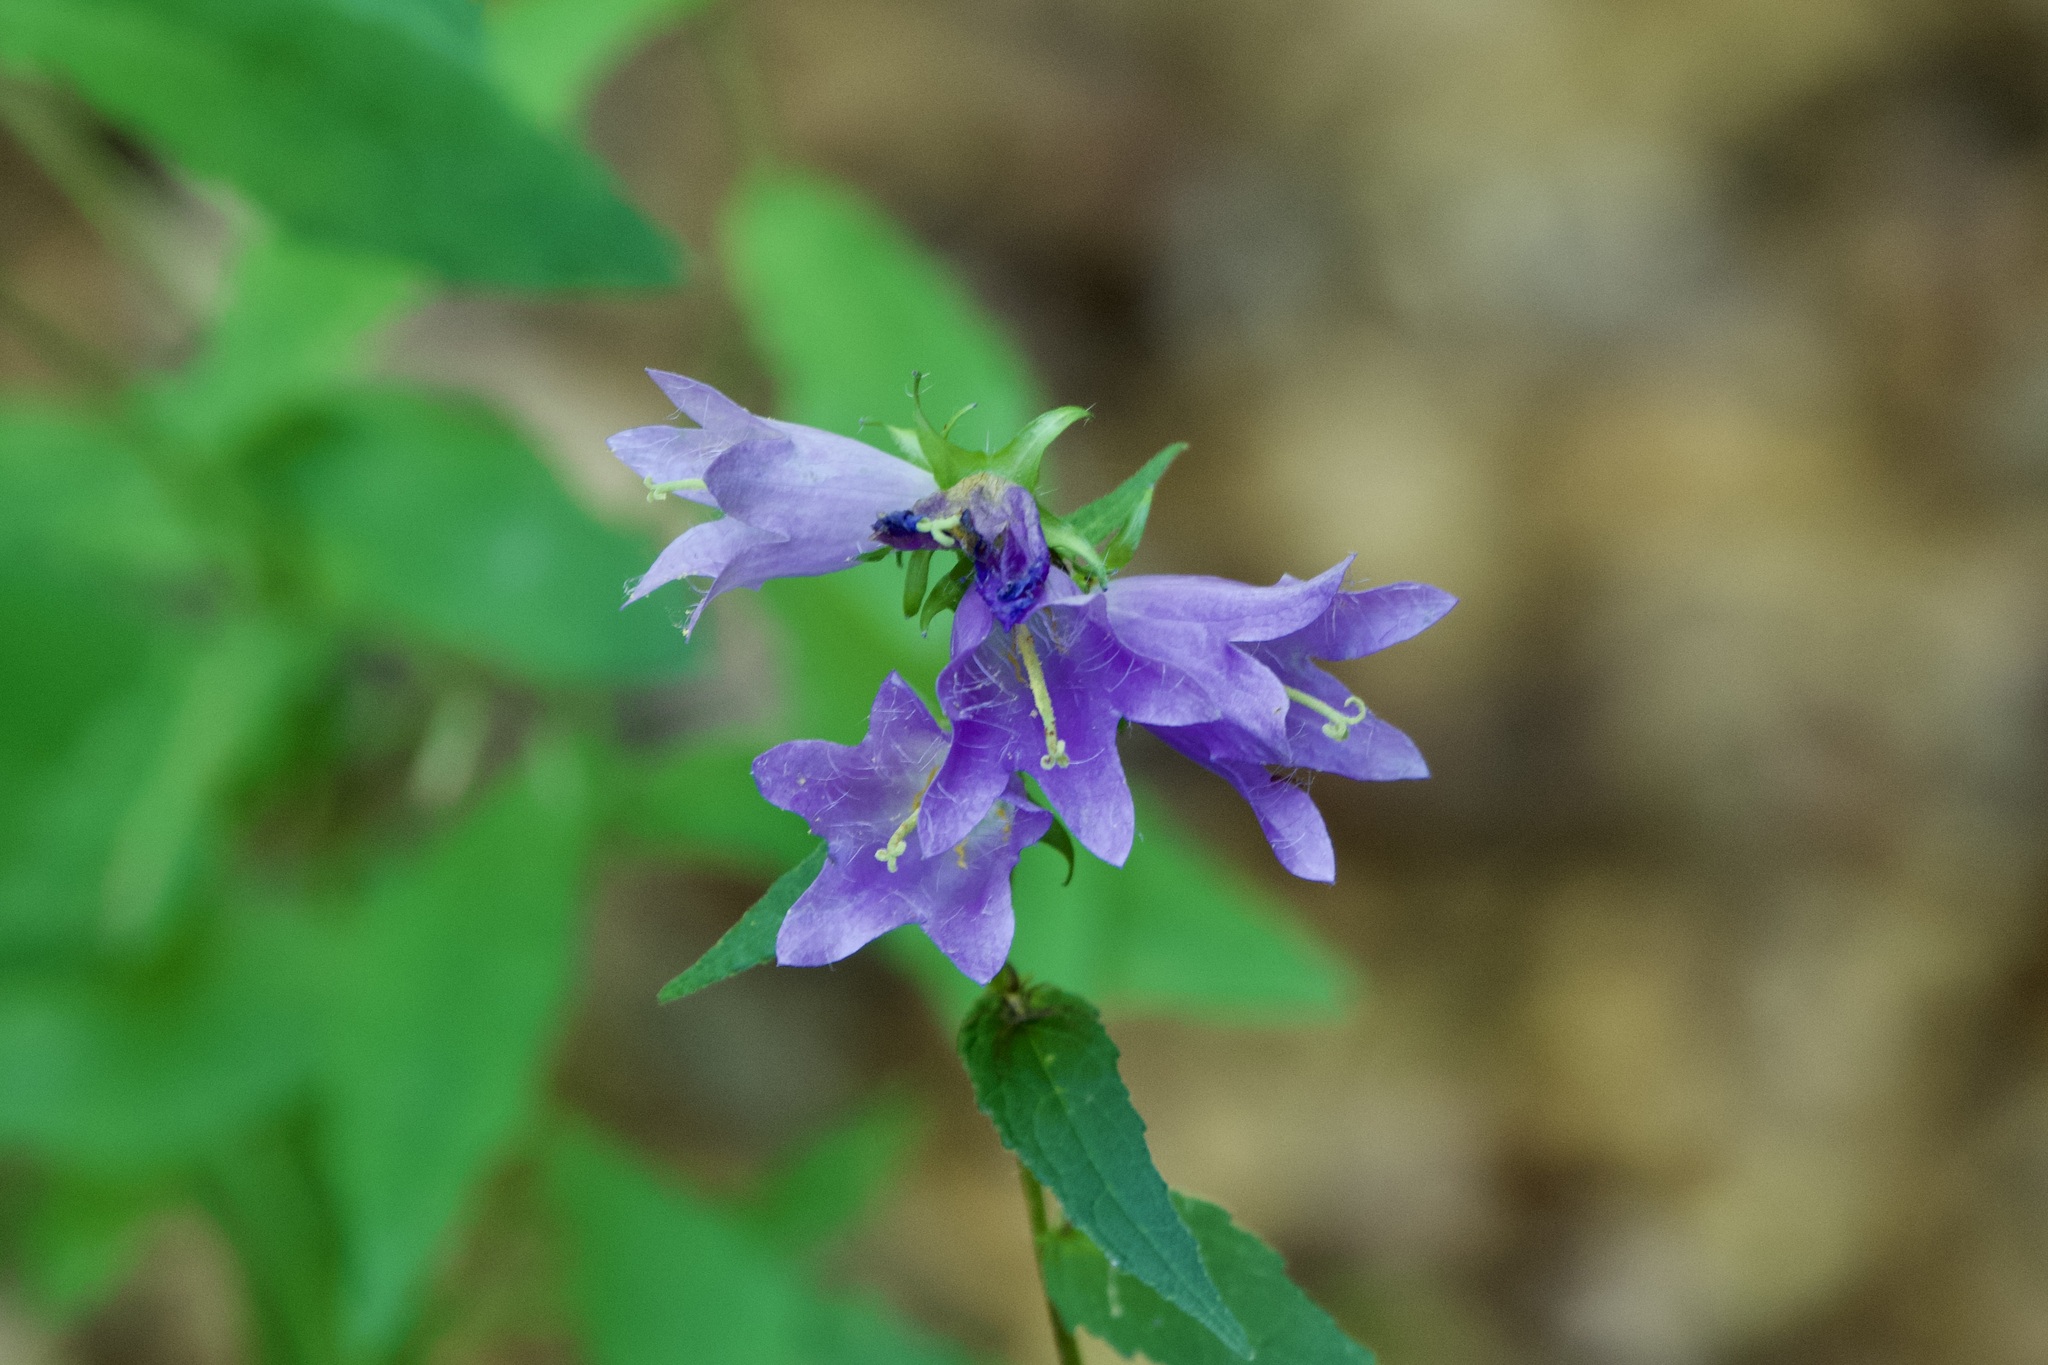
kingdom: Plantae
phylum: Tracheophyta
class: Magnoliopsida
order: Asterales
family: Campanulaceae
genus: Campanula
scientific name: Campanula trachelium
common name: Nettle-leaved bellflower
